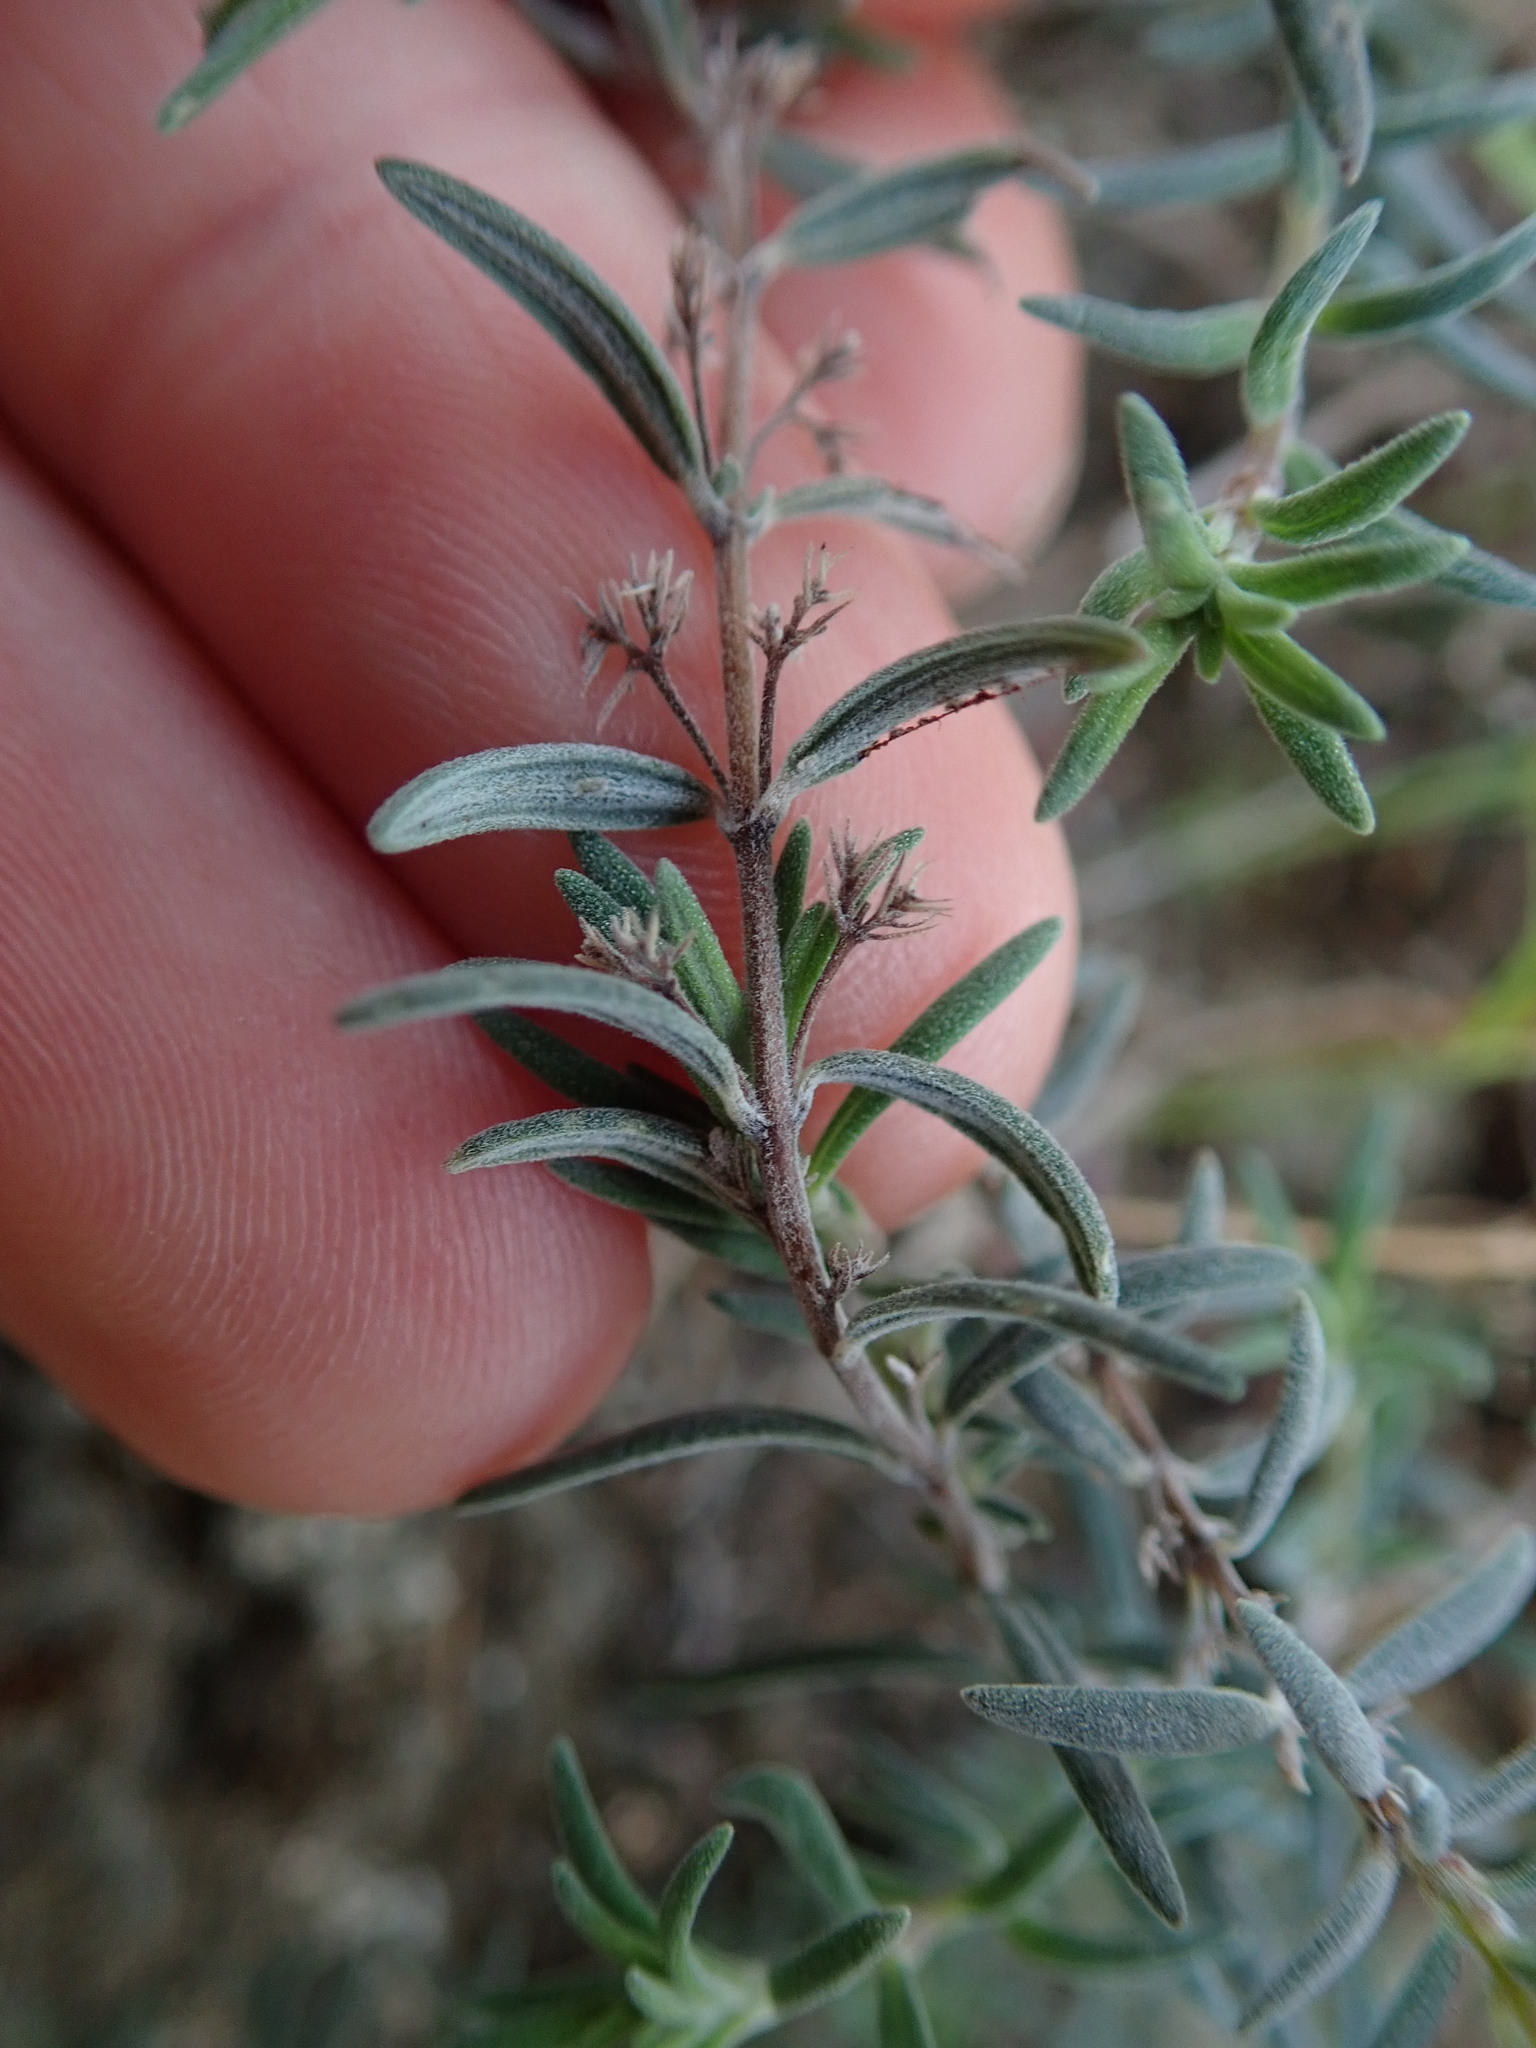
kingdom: Plantae
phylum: Tracheophyta
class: Magnoliopsida
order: Lamiales
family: Lamiaceae
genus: Micromeria
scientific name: Micromeria tenuis
